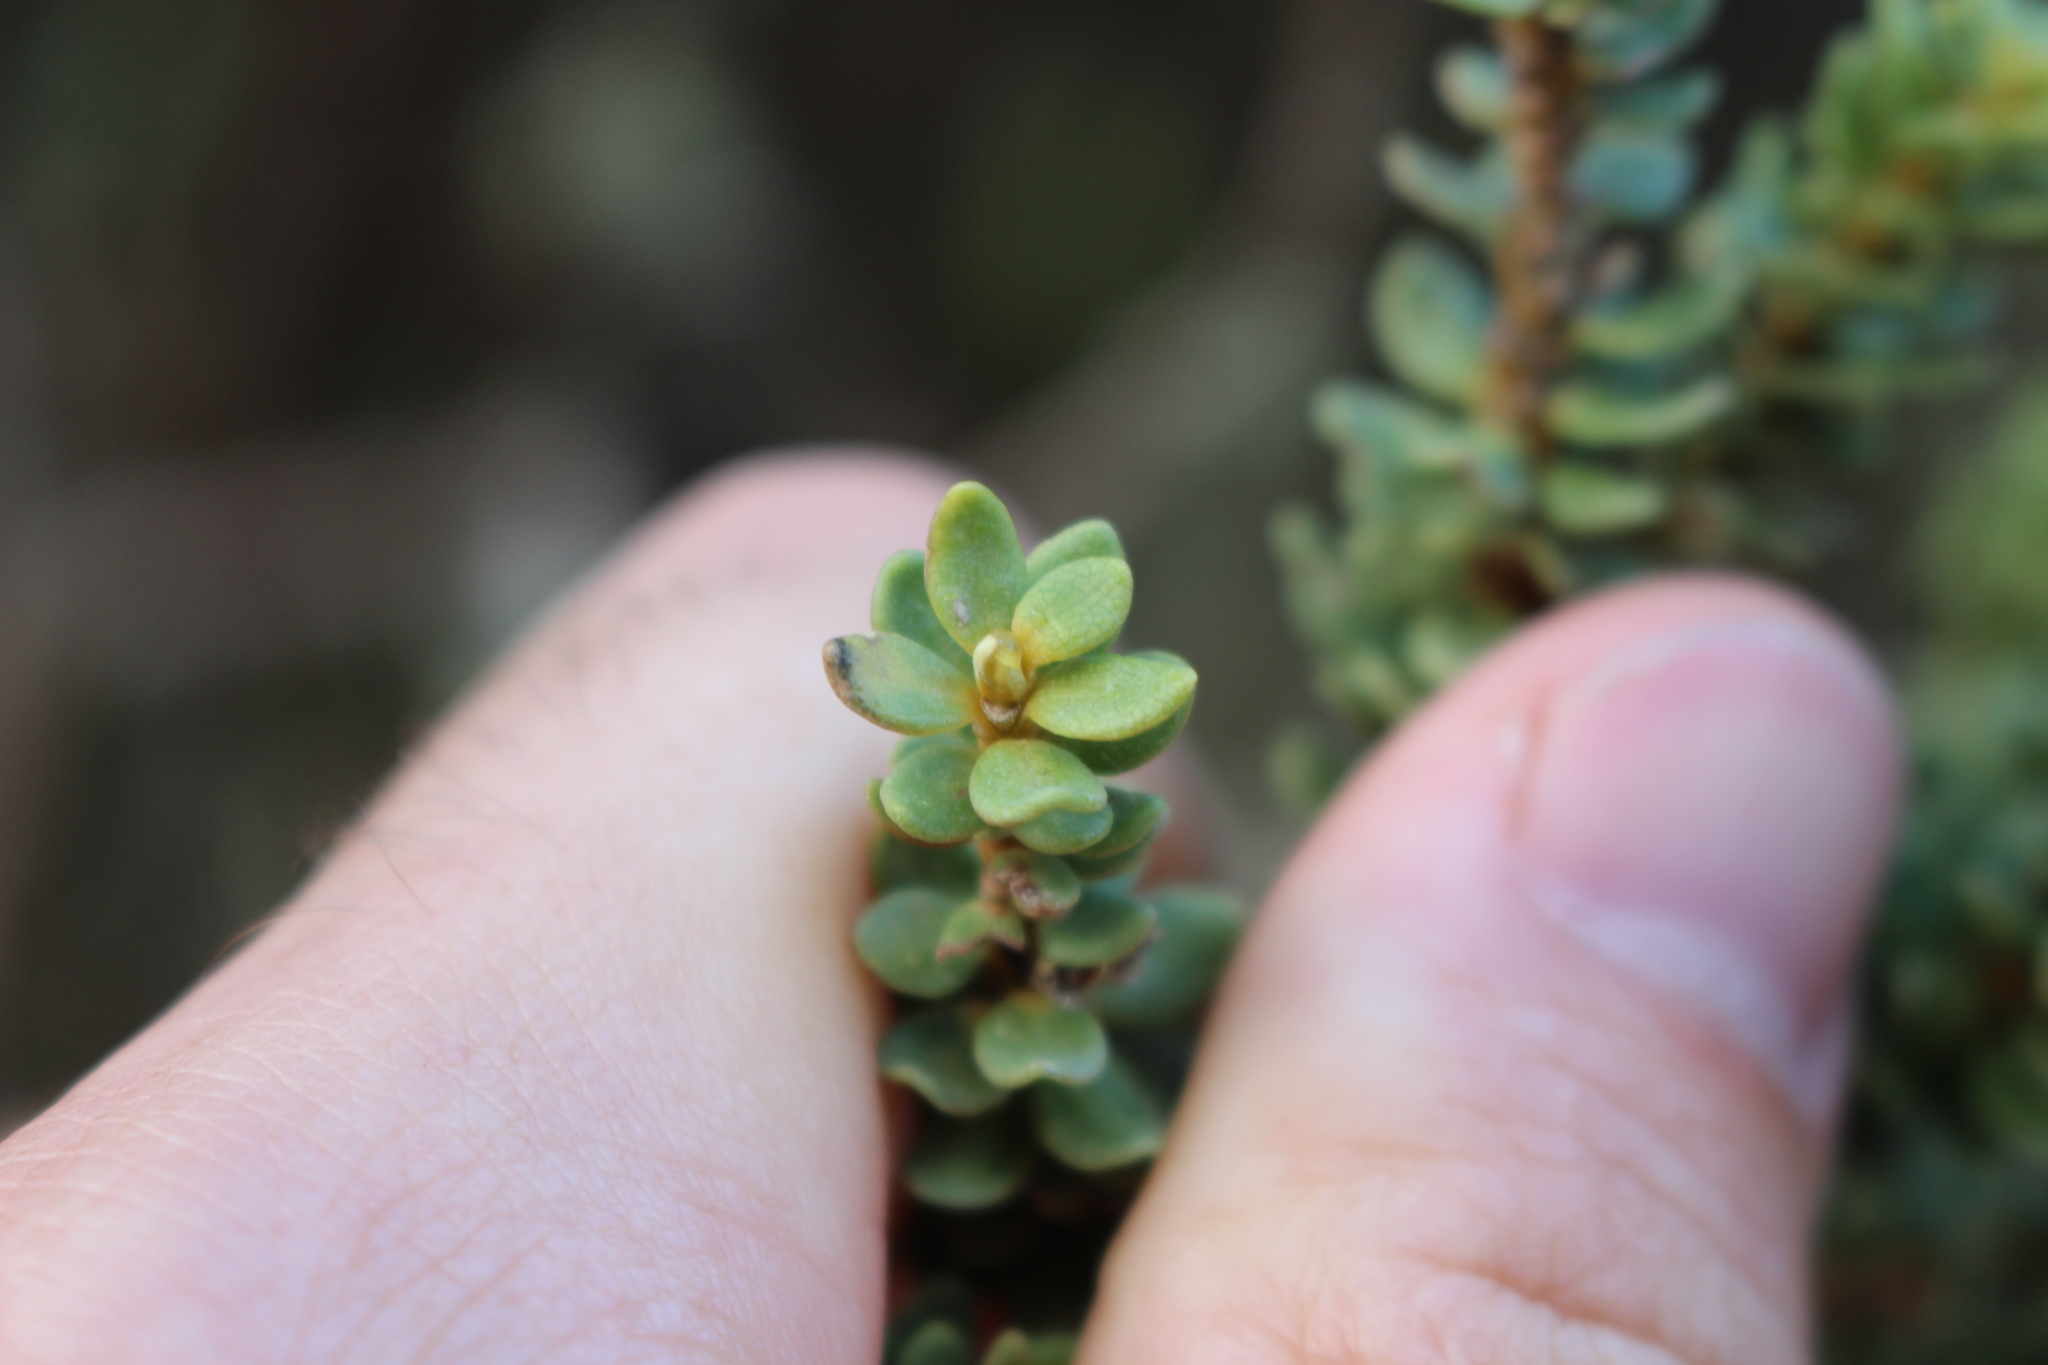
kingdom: Plantae
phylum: Tracheophyta
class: Magnoliopsida
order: Asterales
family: Asteraceae
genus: Olearia
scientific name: Olearia nummularifolia
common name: Sticky daisybush
